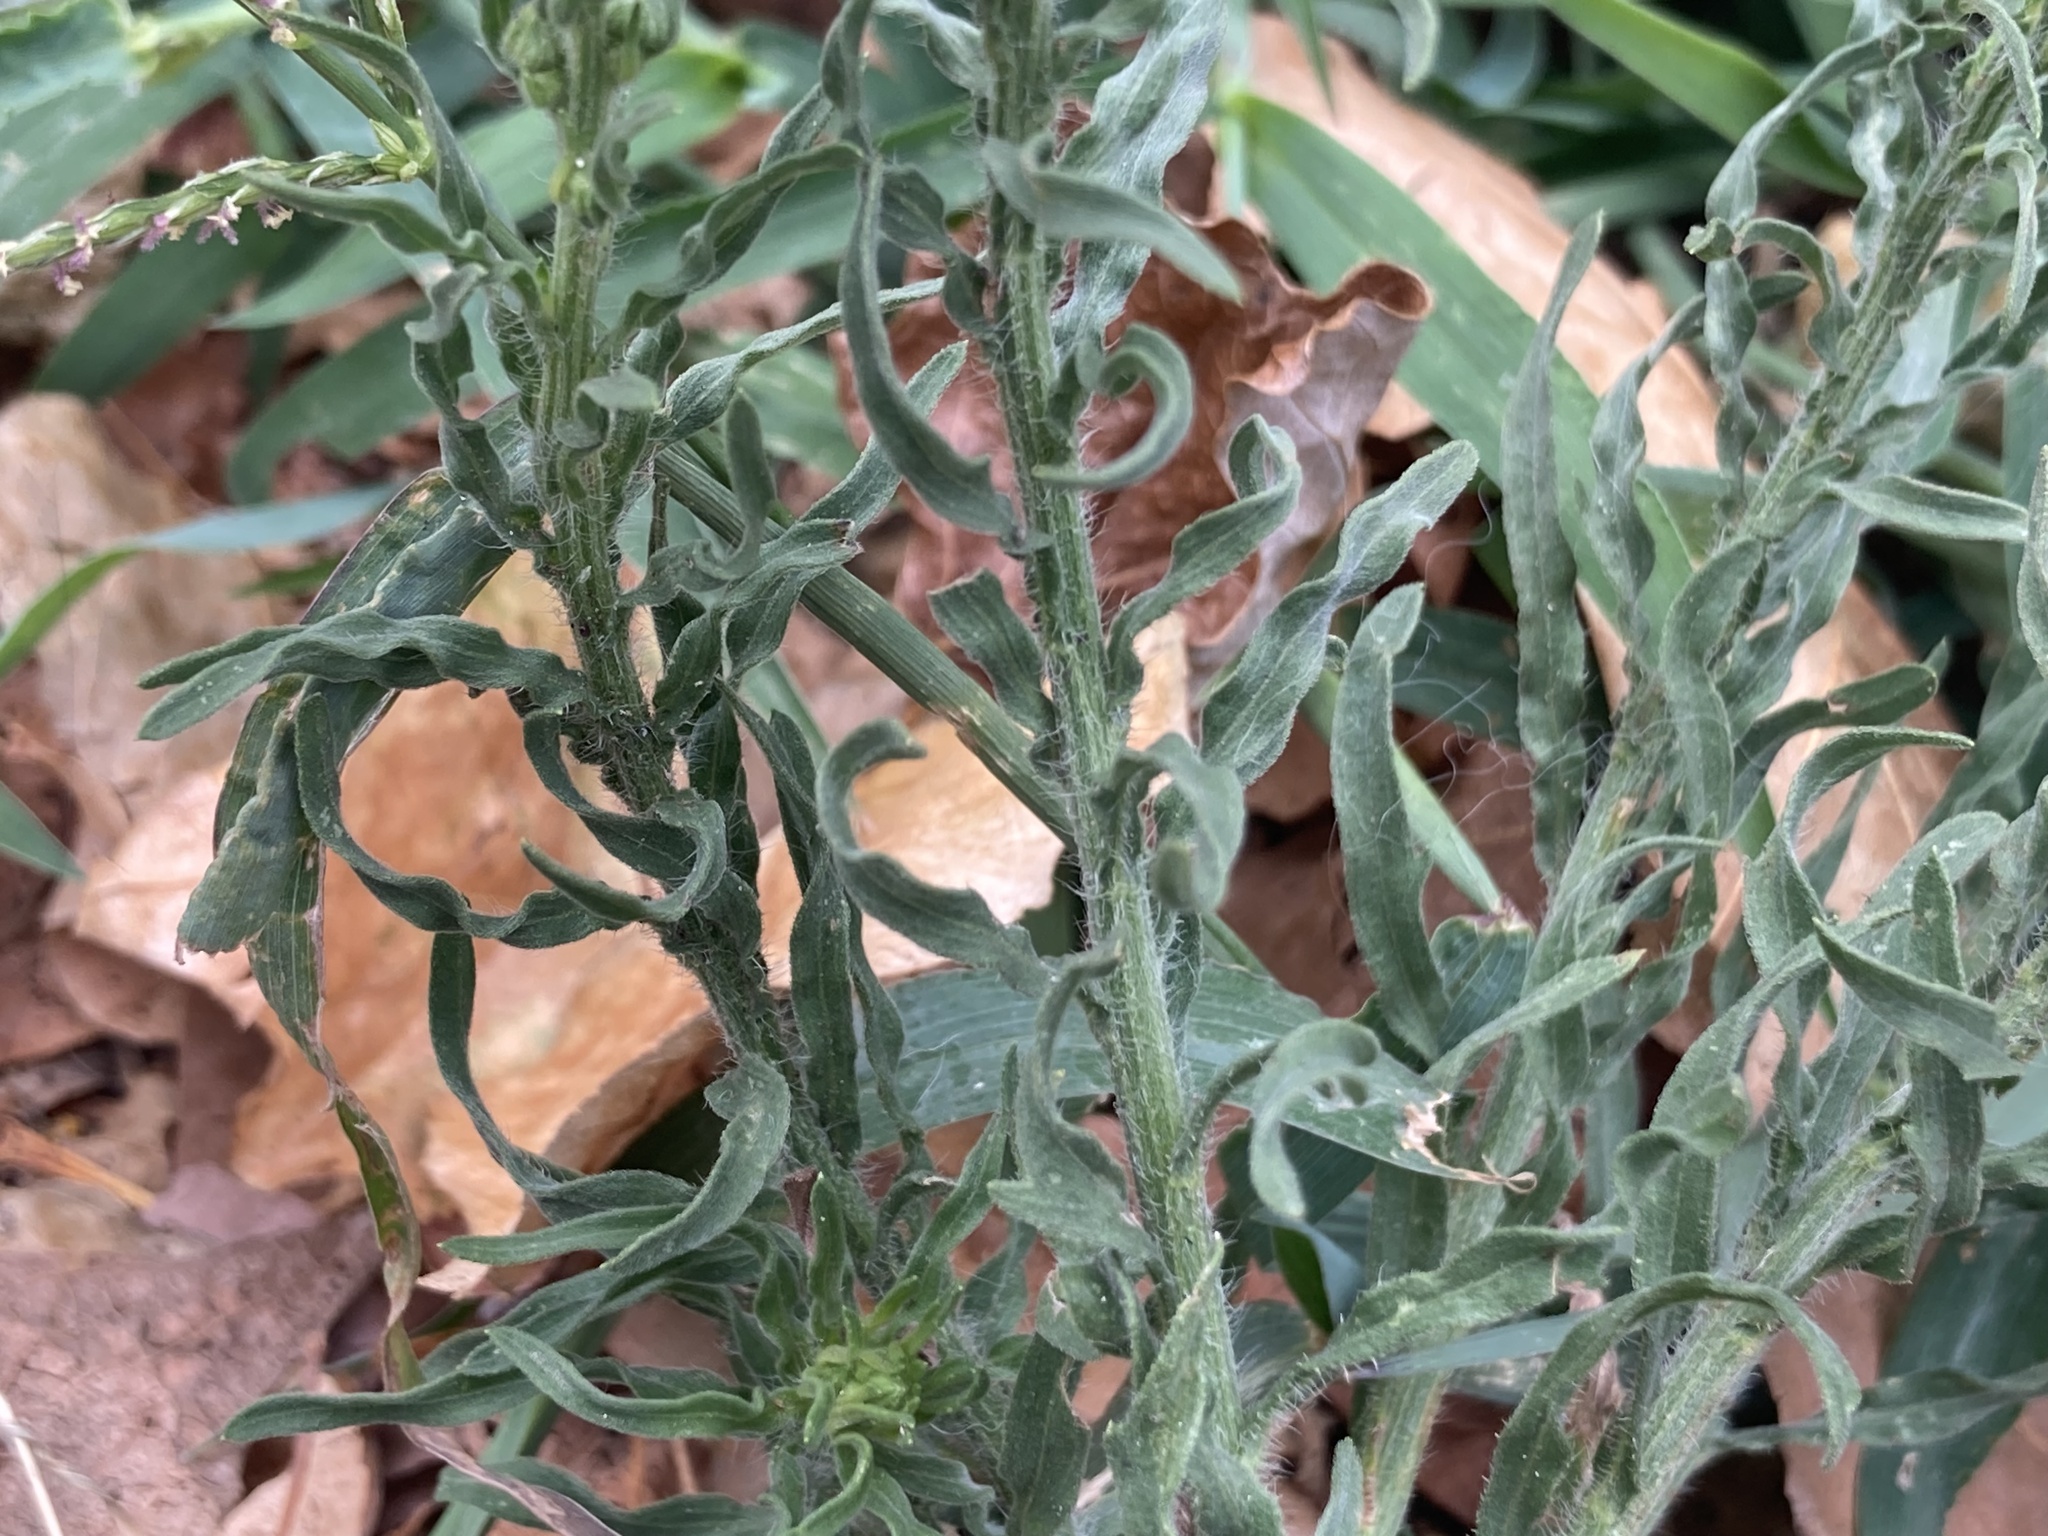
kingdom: Plantae
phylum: Tracheophyta
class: Magnoliopsida
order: Asterales
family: Asteraceae
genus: Erigeron
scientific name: Erigeron bonariensis
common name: Argentine fleabane
